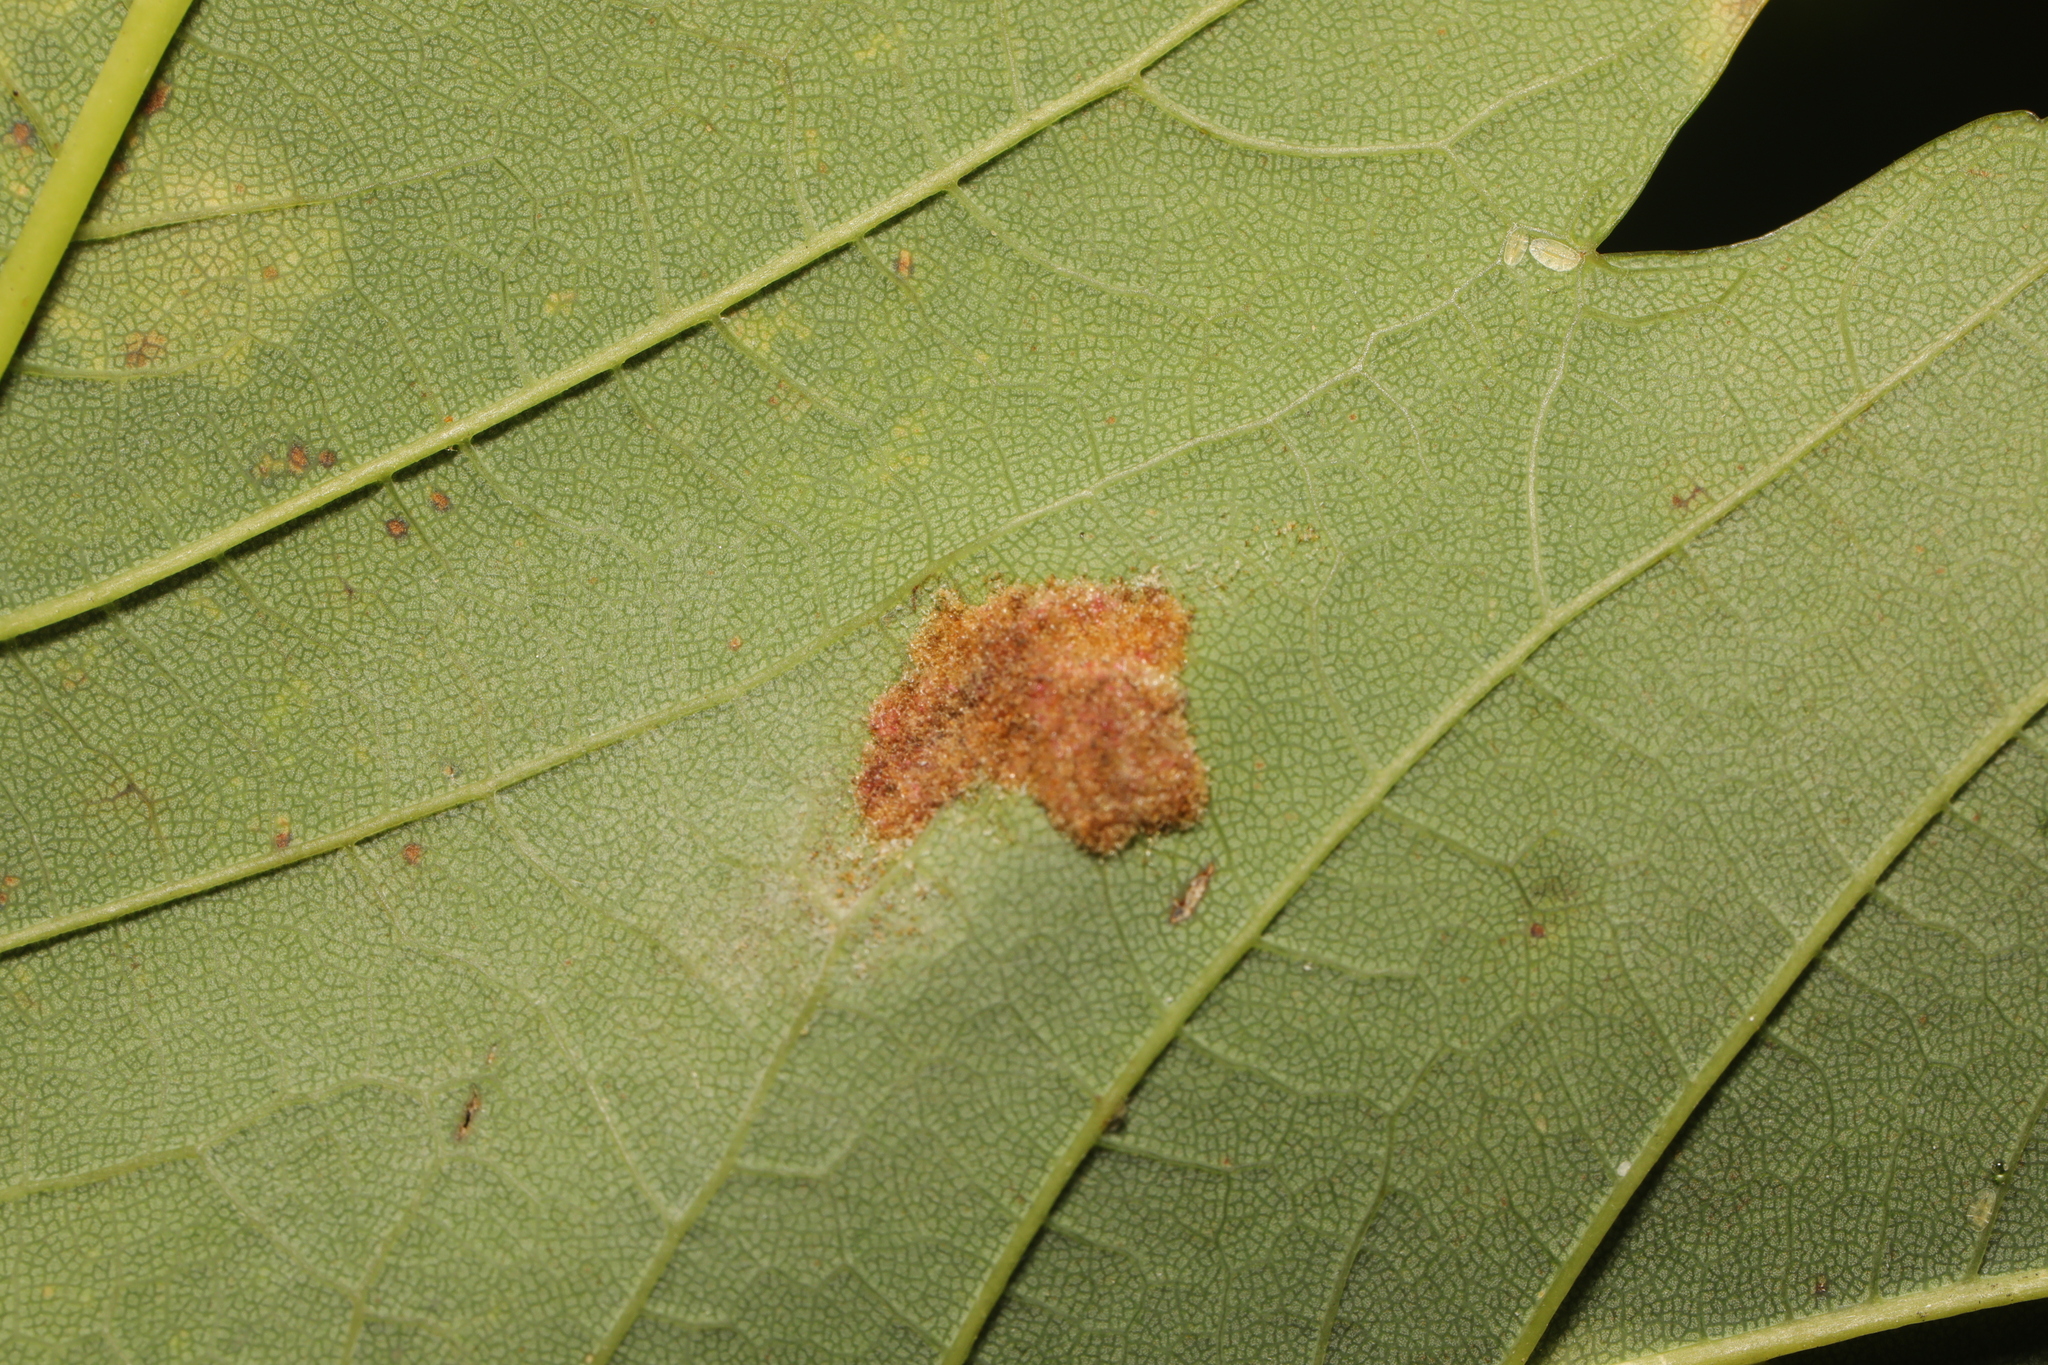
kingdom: Animalia
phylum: Arthropoda
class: Arachnida
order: Trombidiformes
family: Eriophyidae
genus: Aceria
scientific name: Aceria pseudoplatani
